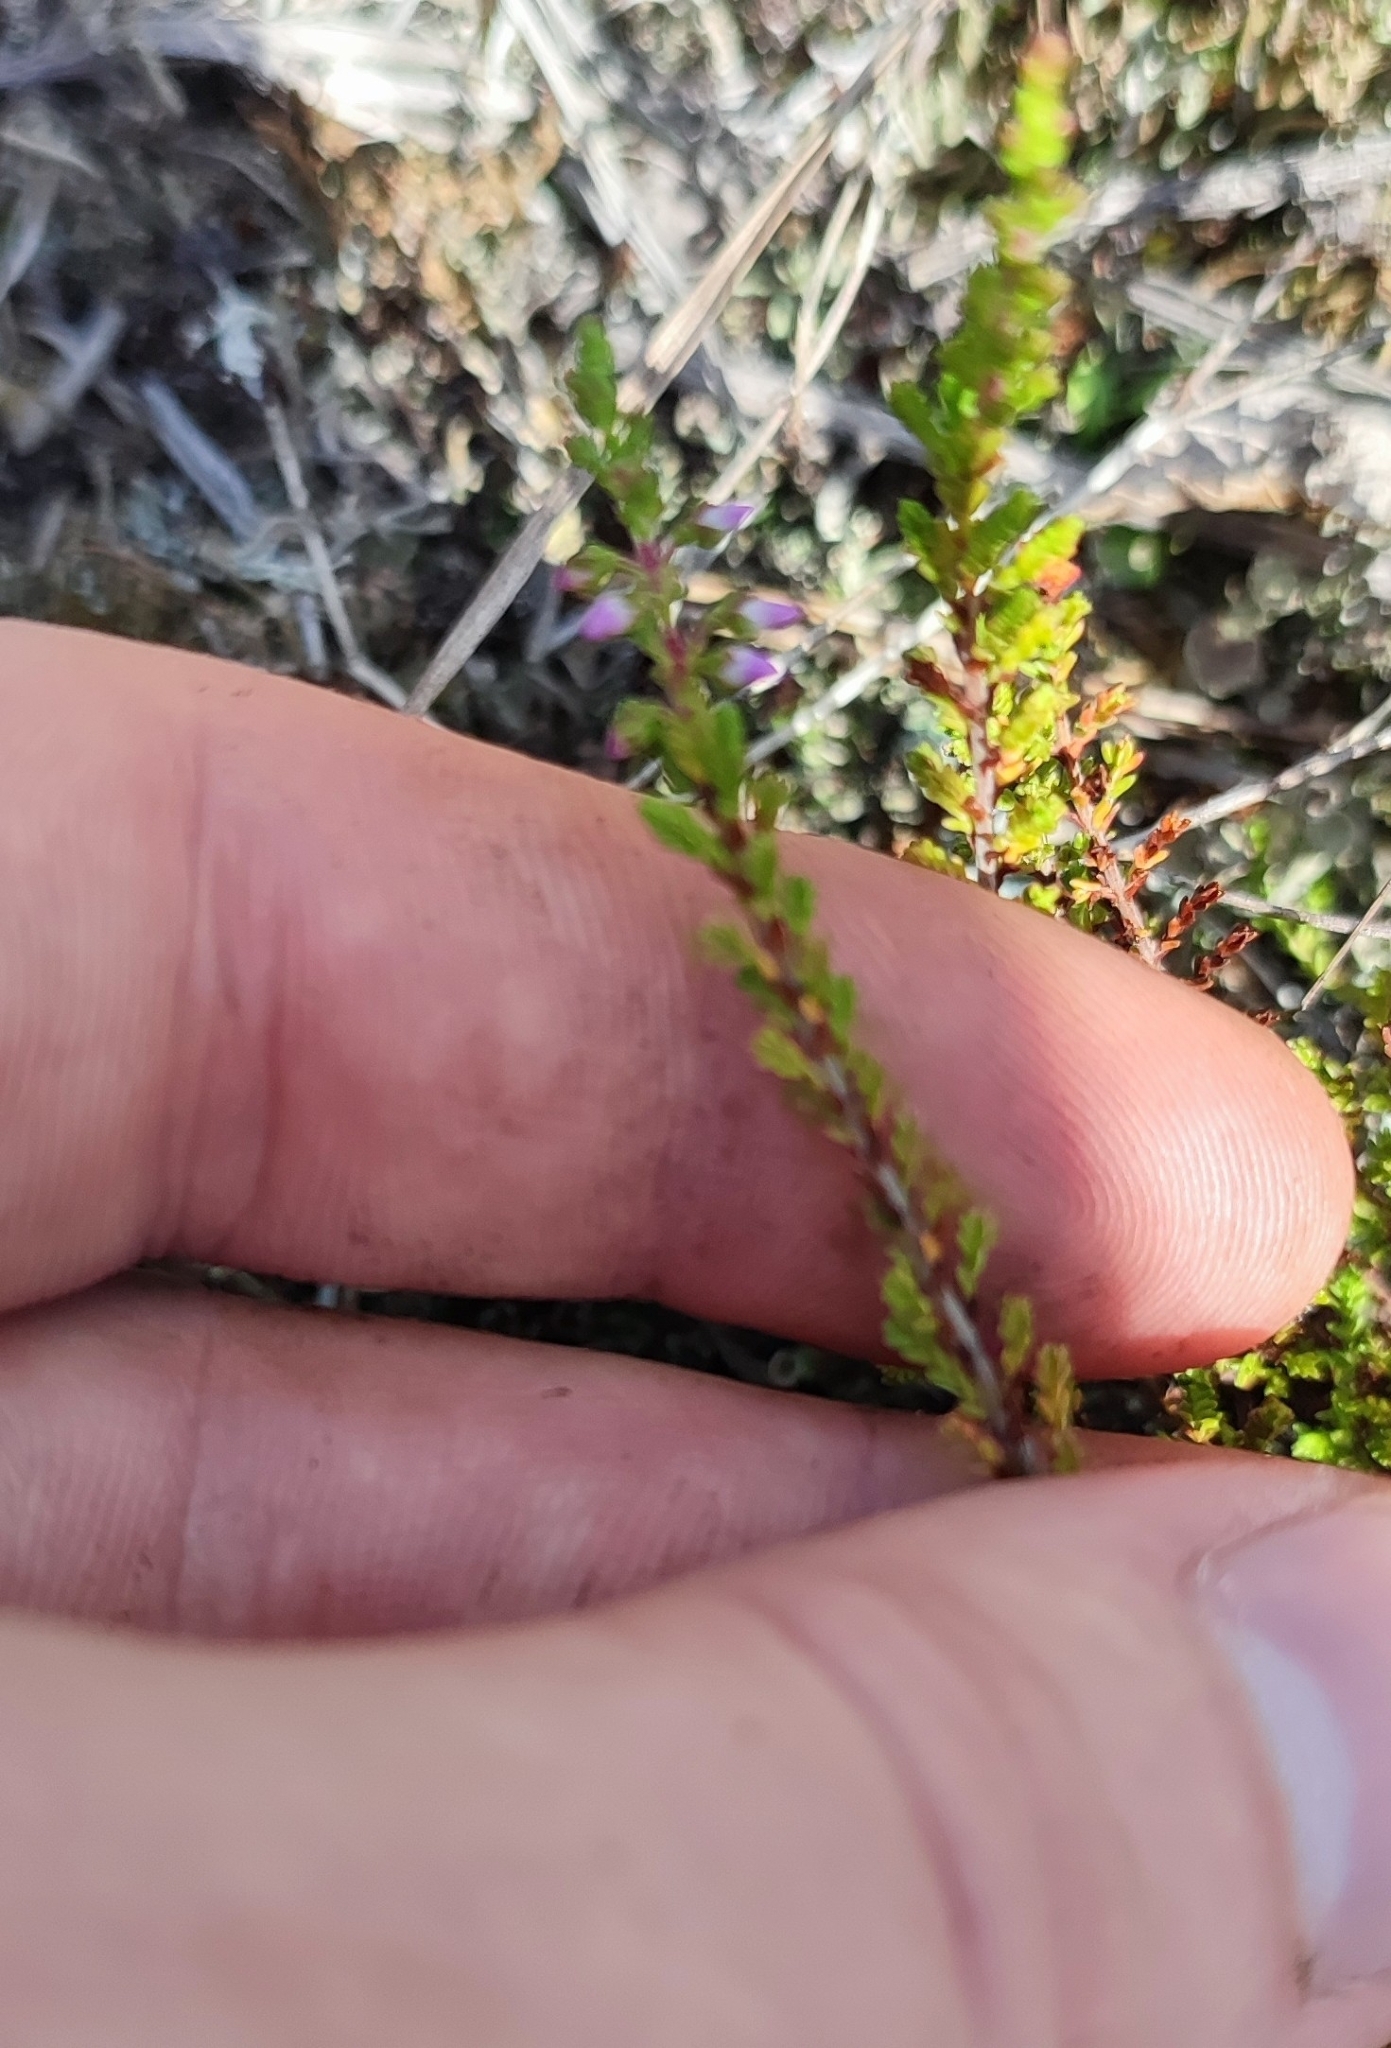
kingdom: Plantae
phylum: Tracheophyta
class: Magnoliopsida
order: Ericales
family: Ericaceae
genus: Calluna
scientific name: Calluna vulgaris
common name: Heather
